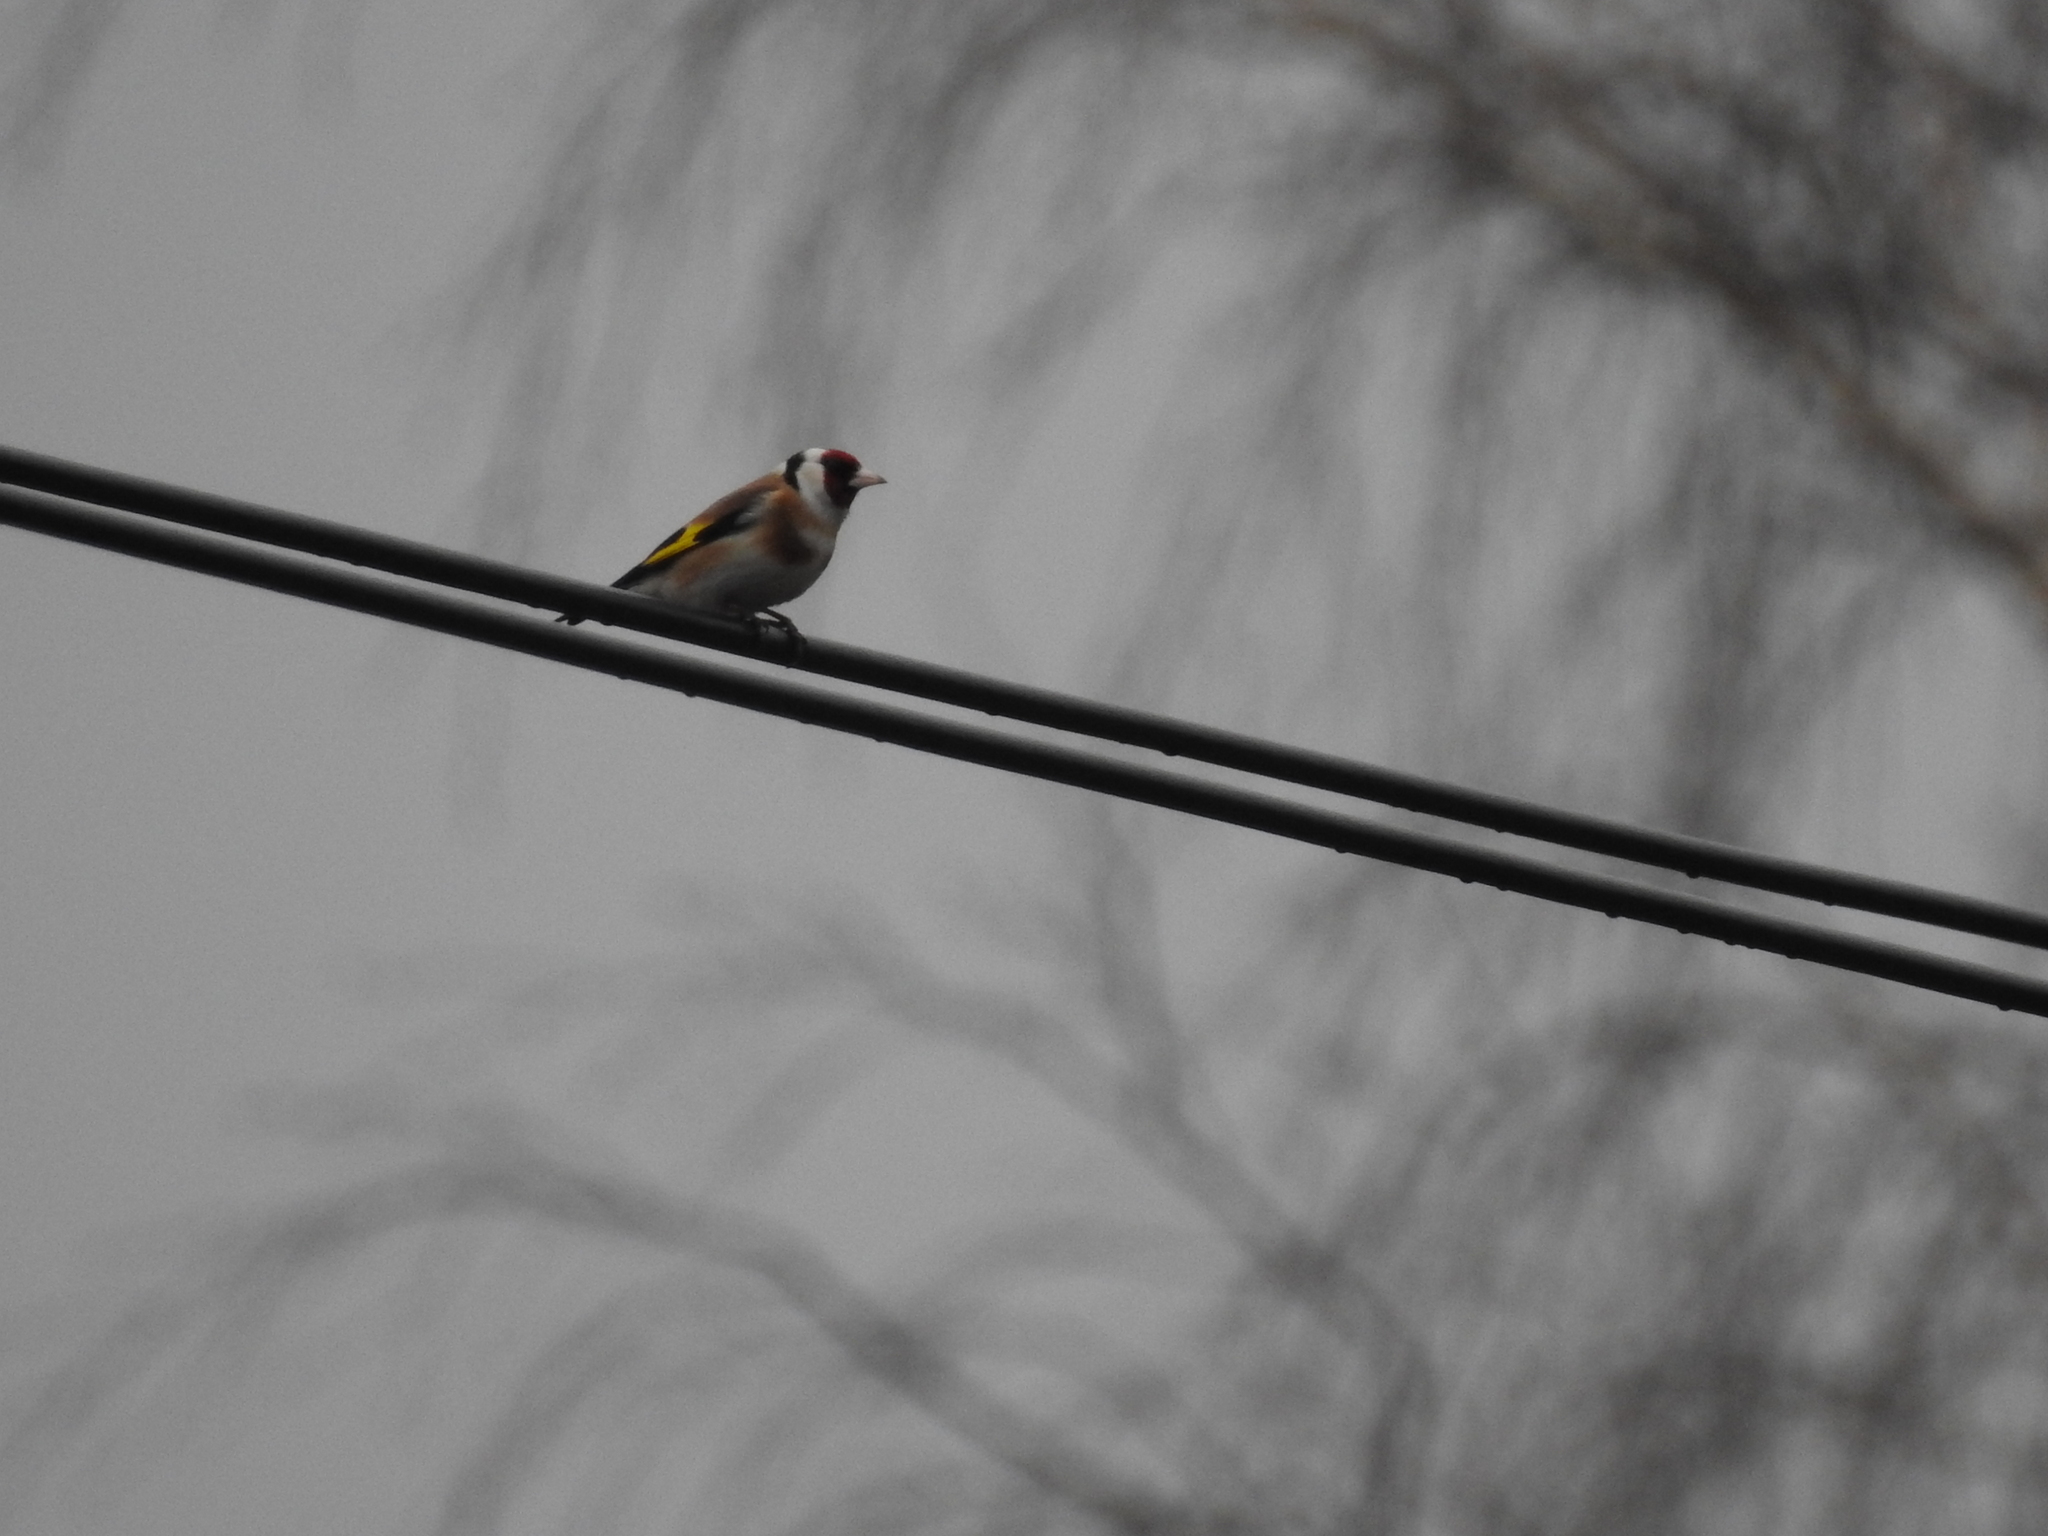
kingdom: Animalia
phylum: Chordata
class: Aves
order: Passeriformes
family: Fringillidae
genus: Carduelis
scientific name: Carduelis carduelis
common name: European goldfinch
